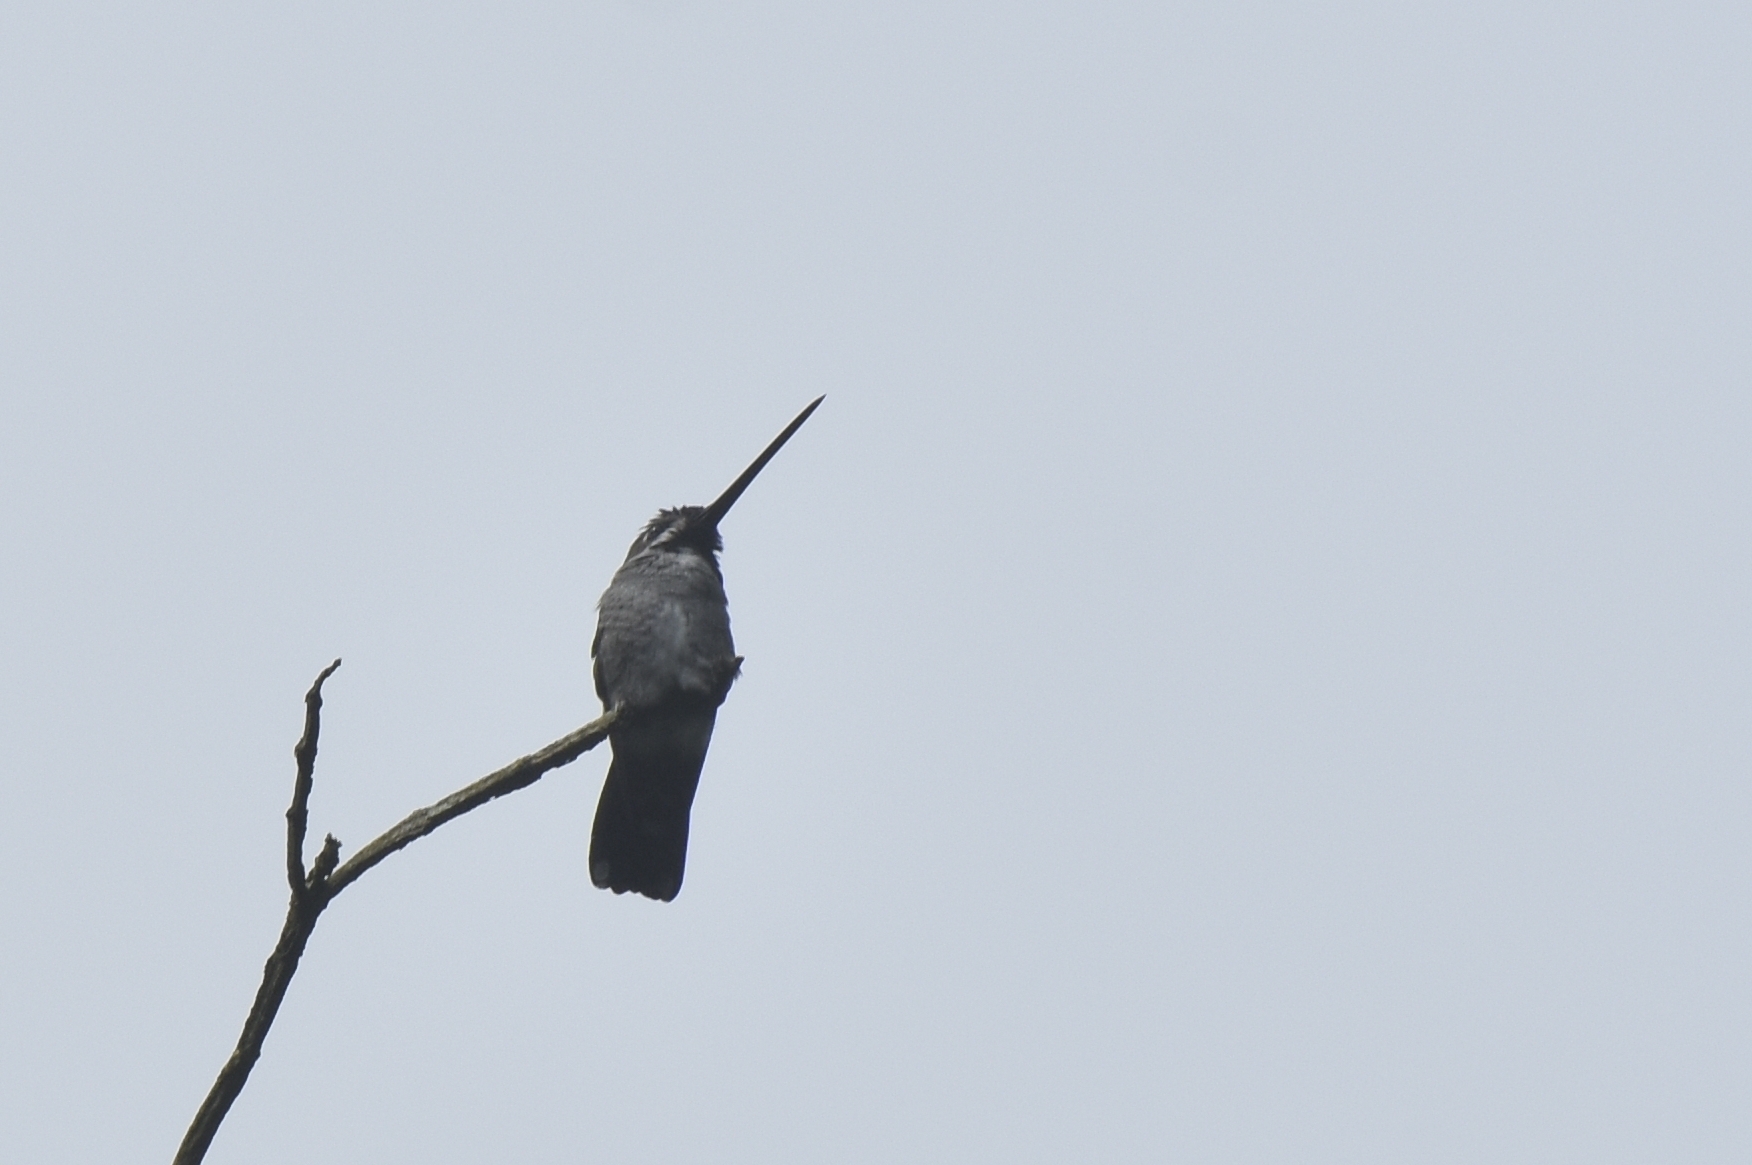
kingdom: Animalia
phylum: Chordata
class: Aves
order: Apodiformes
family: Trochilidae
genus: Heliomaster
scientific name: Heliomaster longirostris
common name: Long-billed starthroat
